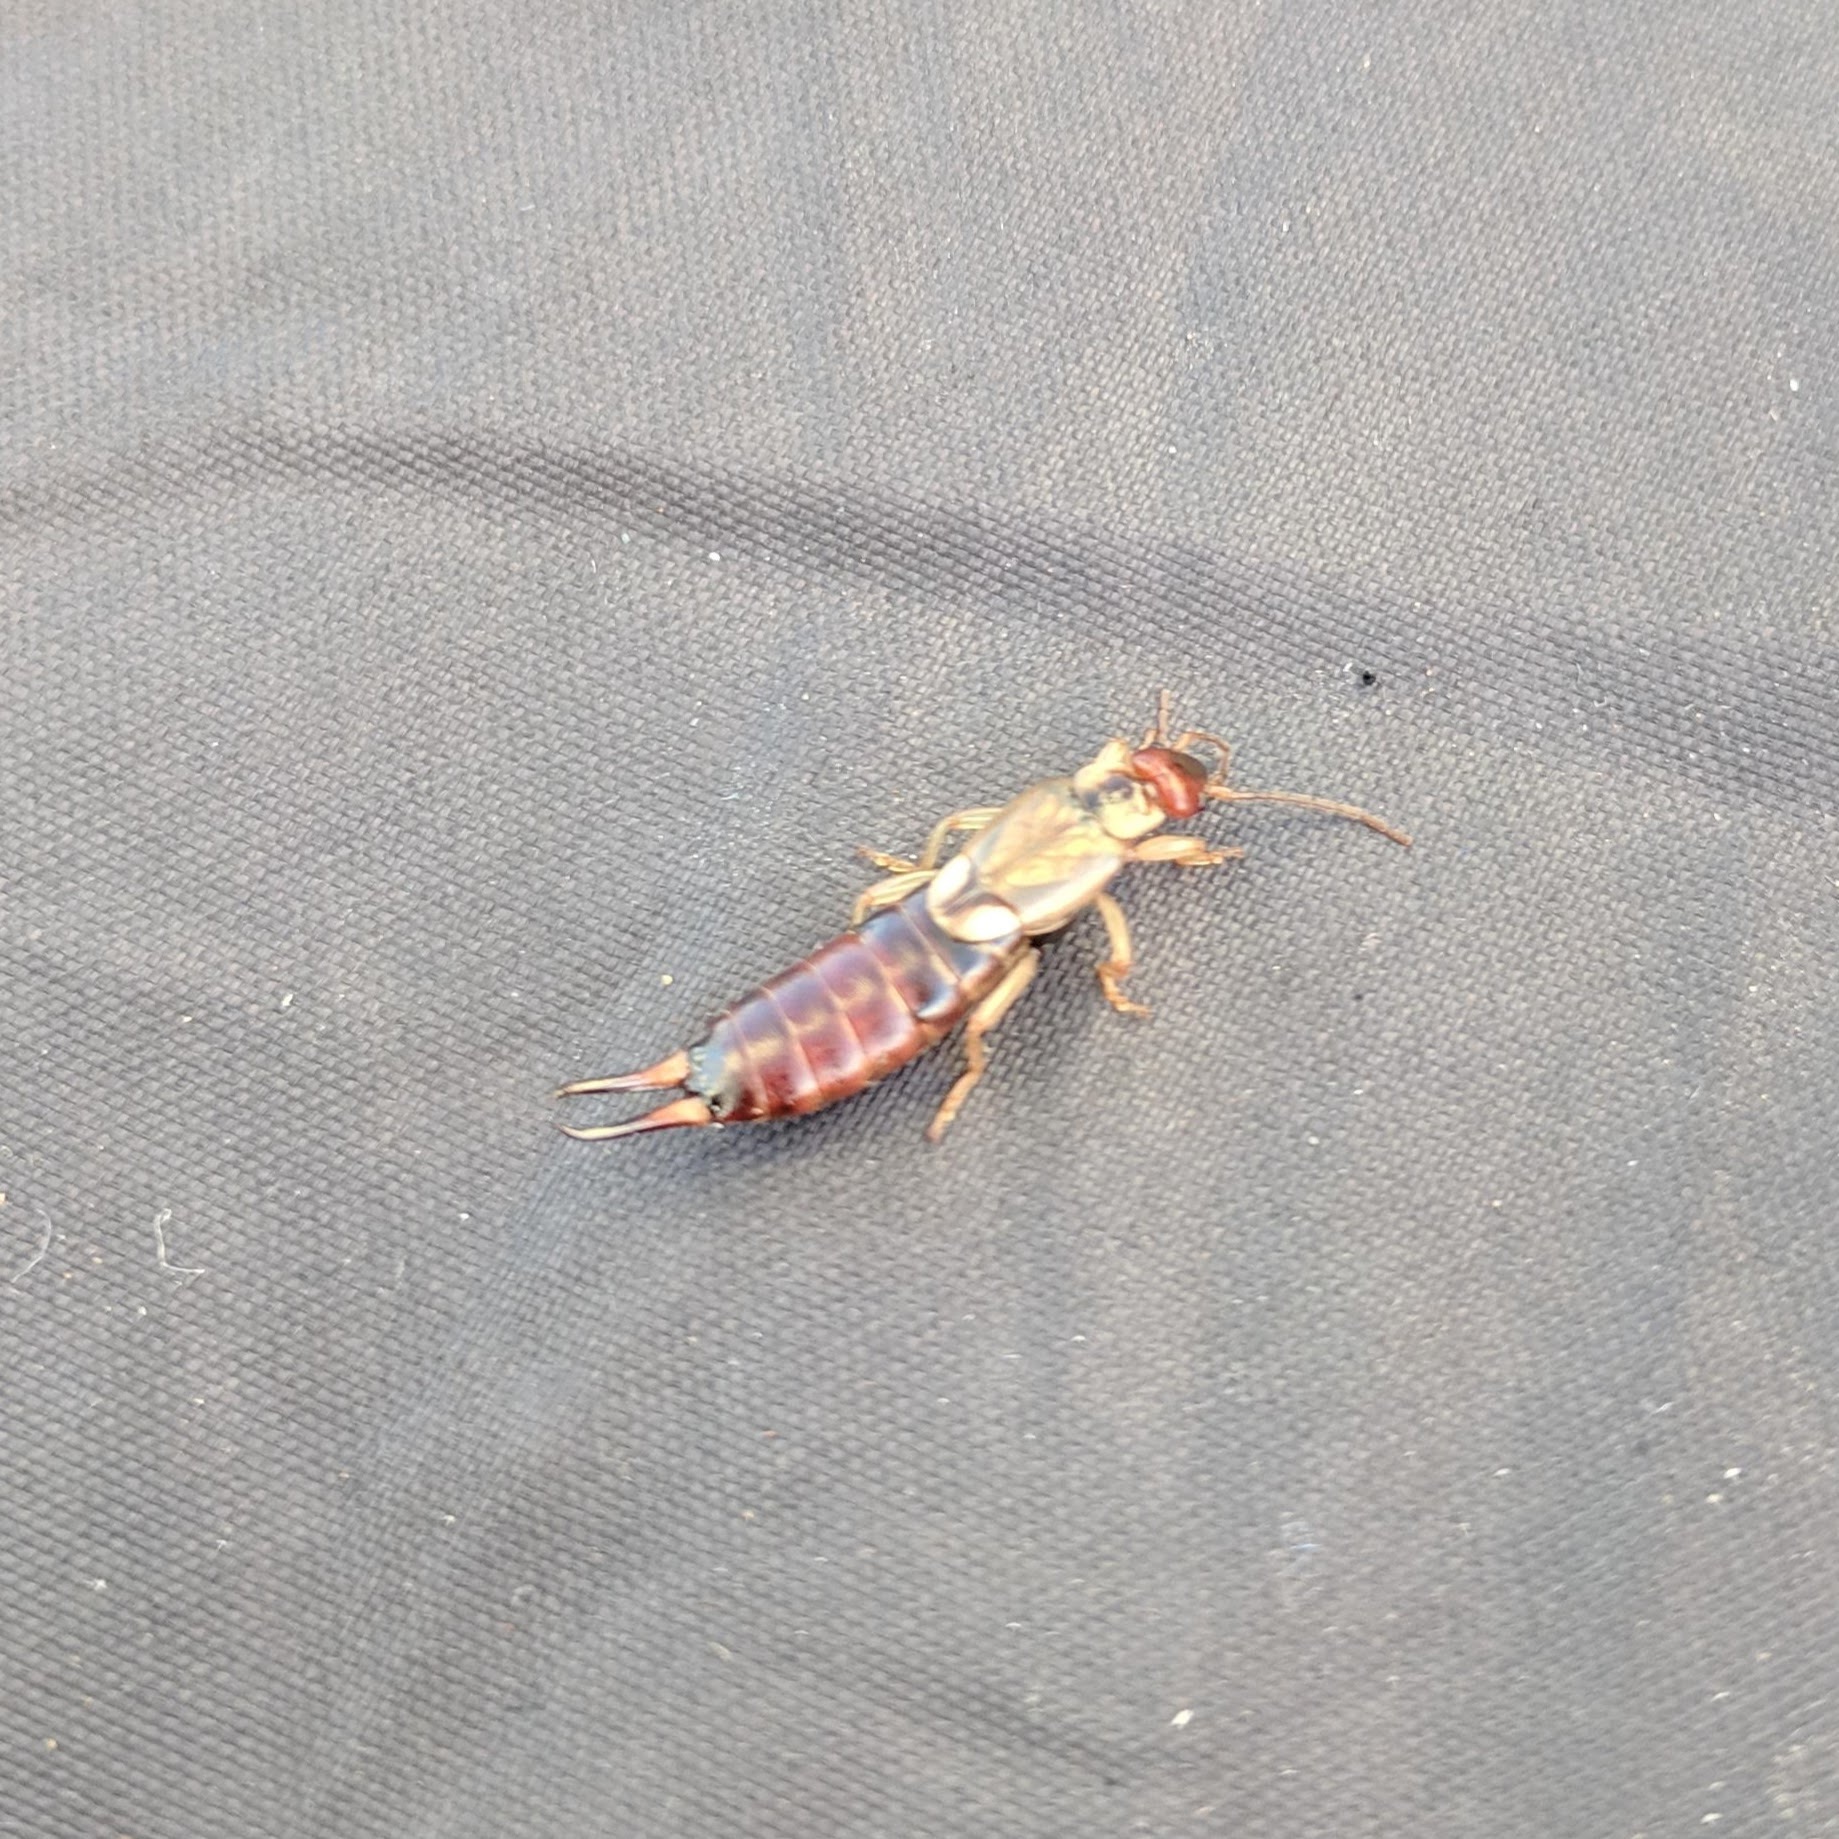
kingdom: Animalia
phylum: Arthropoda
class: Insecta
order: Dermaptera
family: Forficulidae
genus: Forficula
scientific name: Forficula dentata
